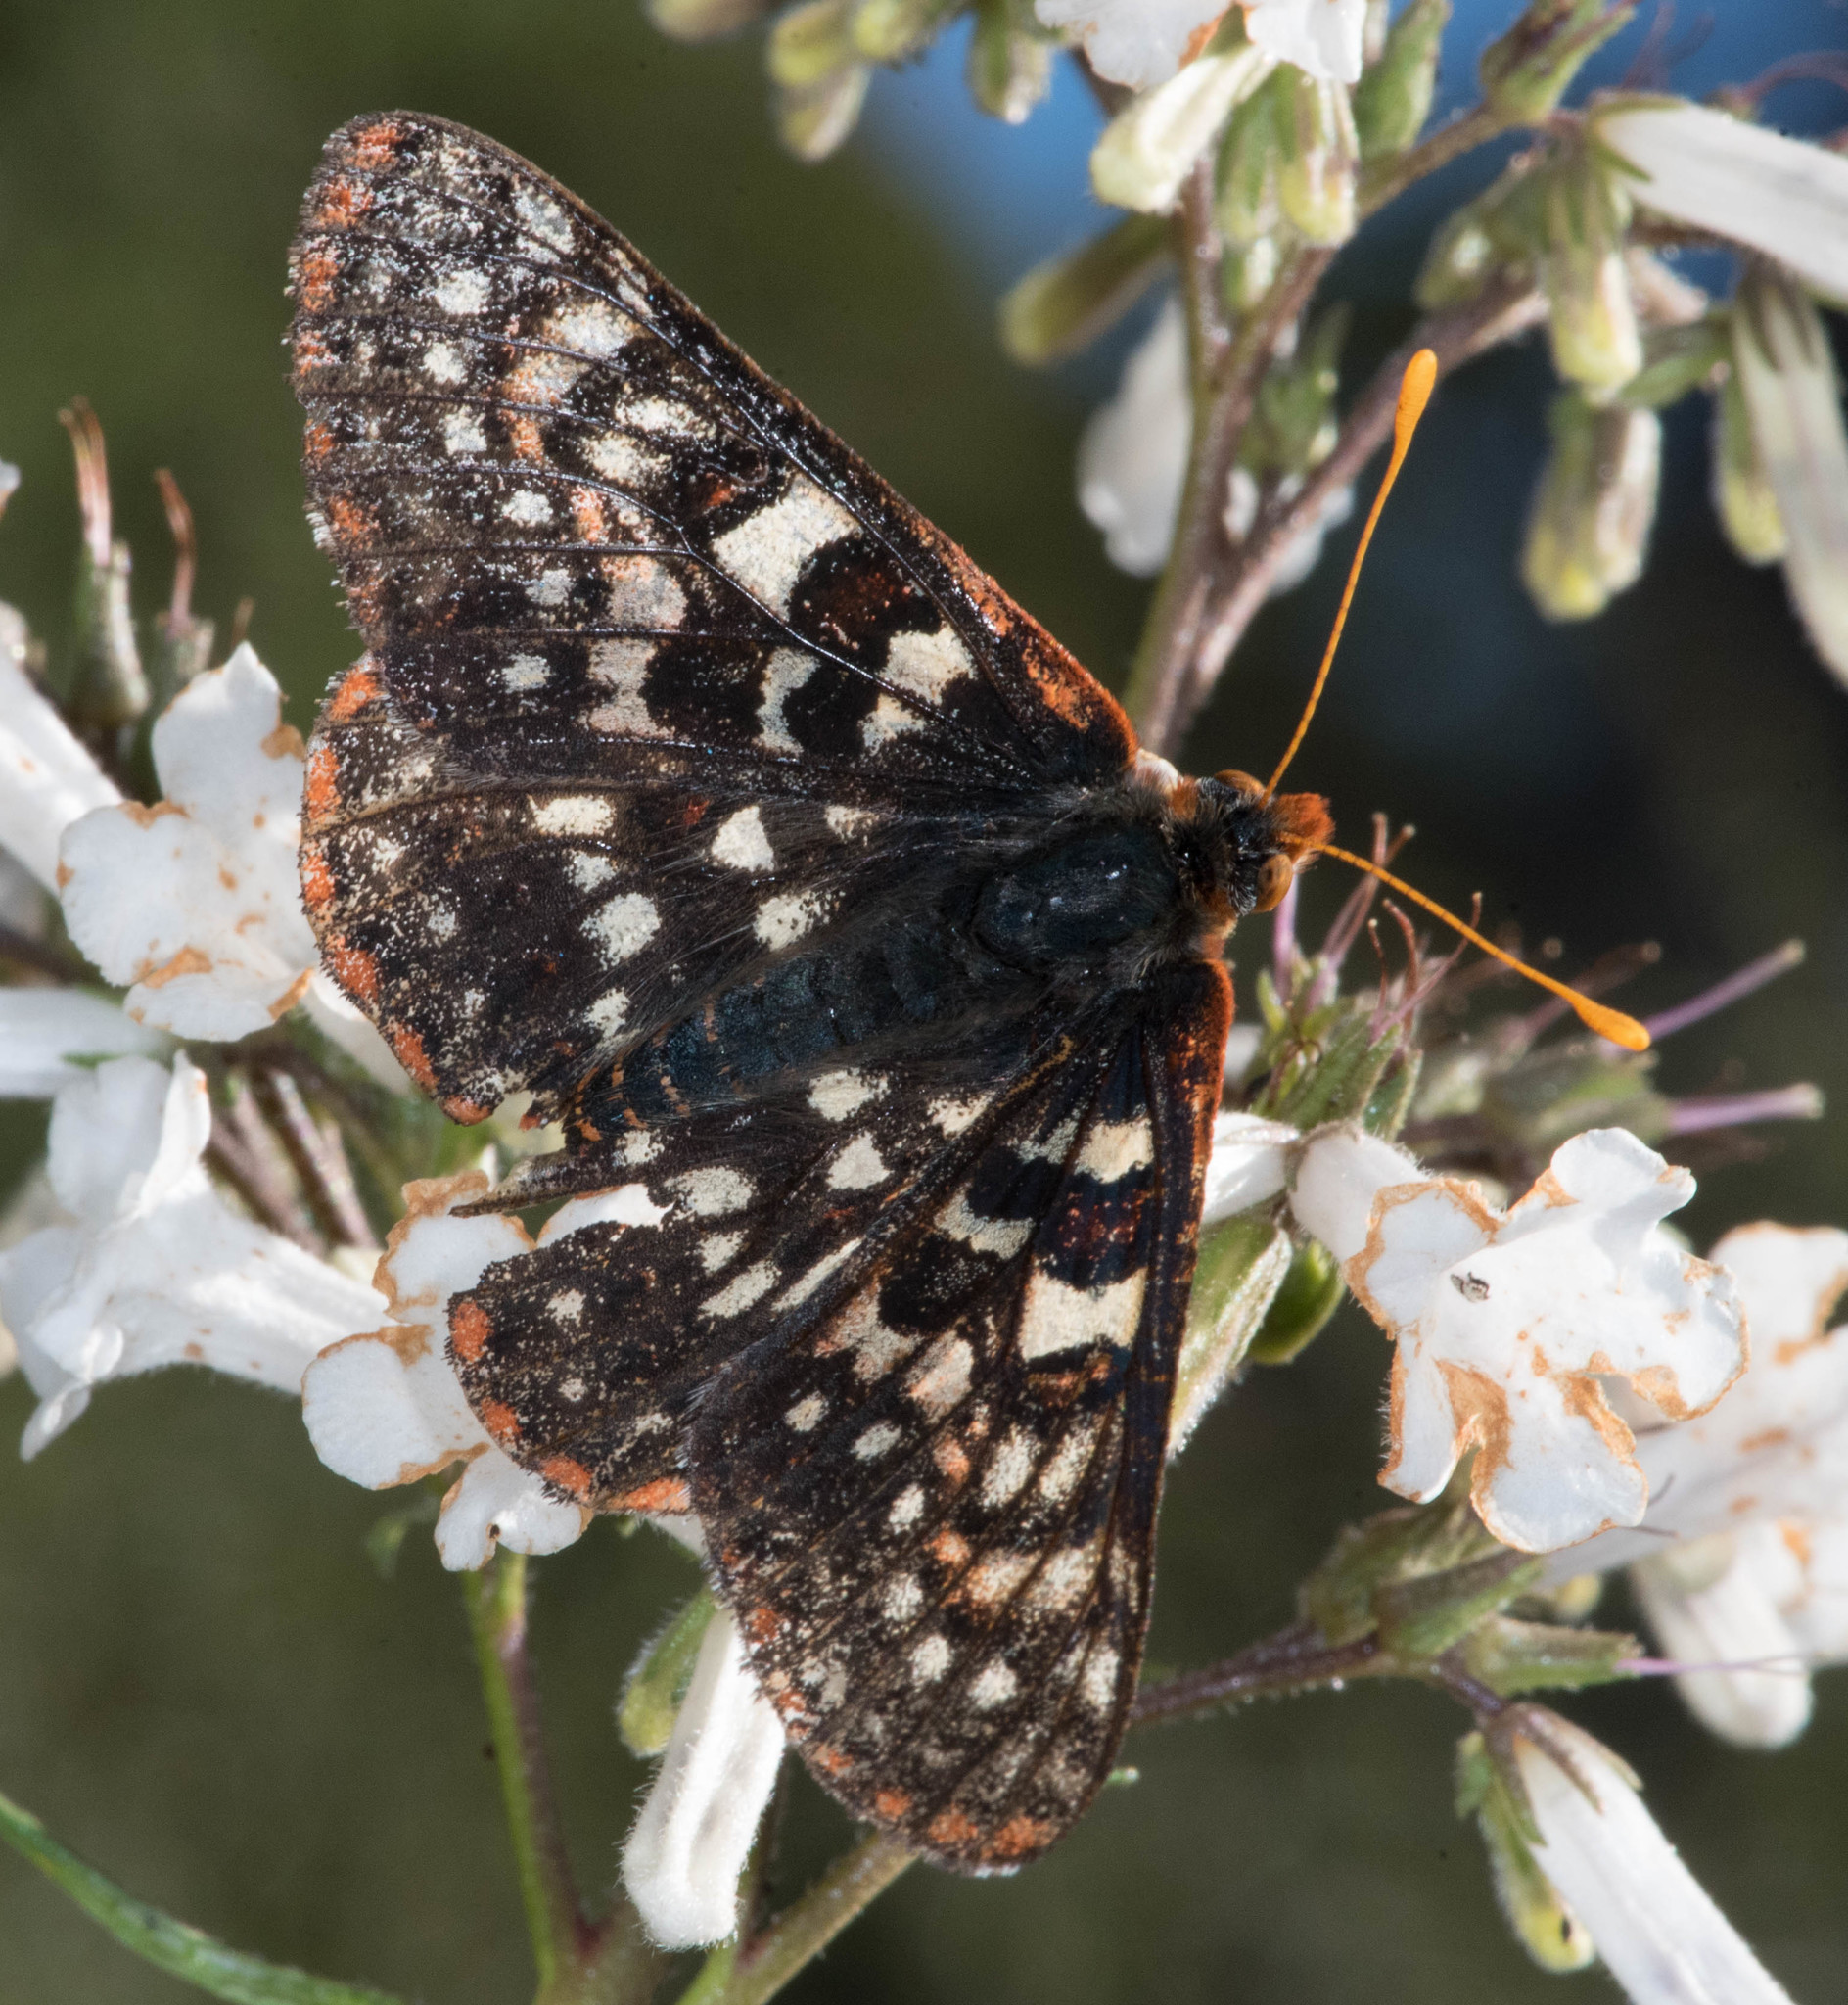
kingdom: Animalia
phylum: Arthropoda
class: Insecta
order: Lepidoptera
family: Nymphalidae
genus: Occidryas
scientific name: Occidryas chalcedona
